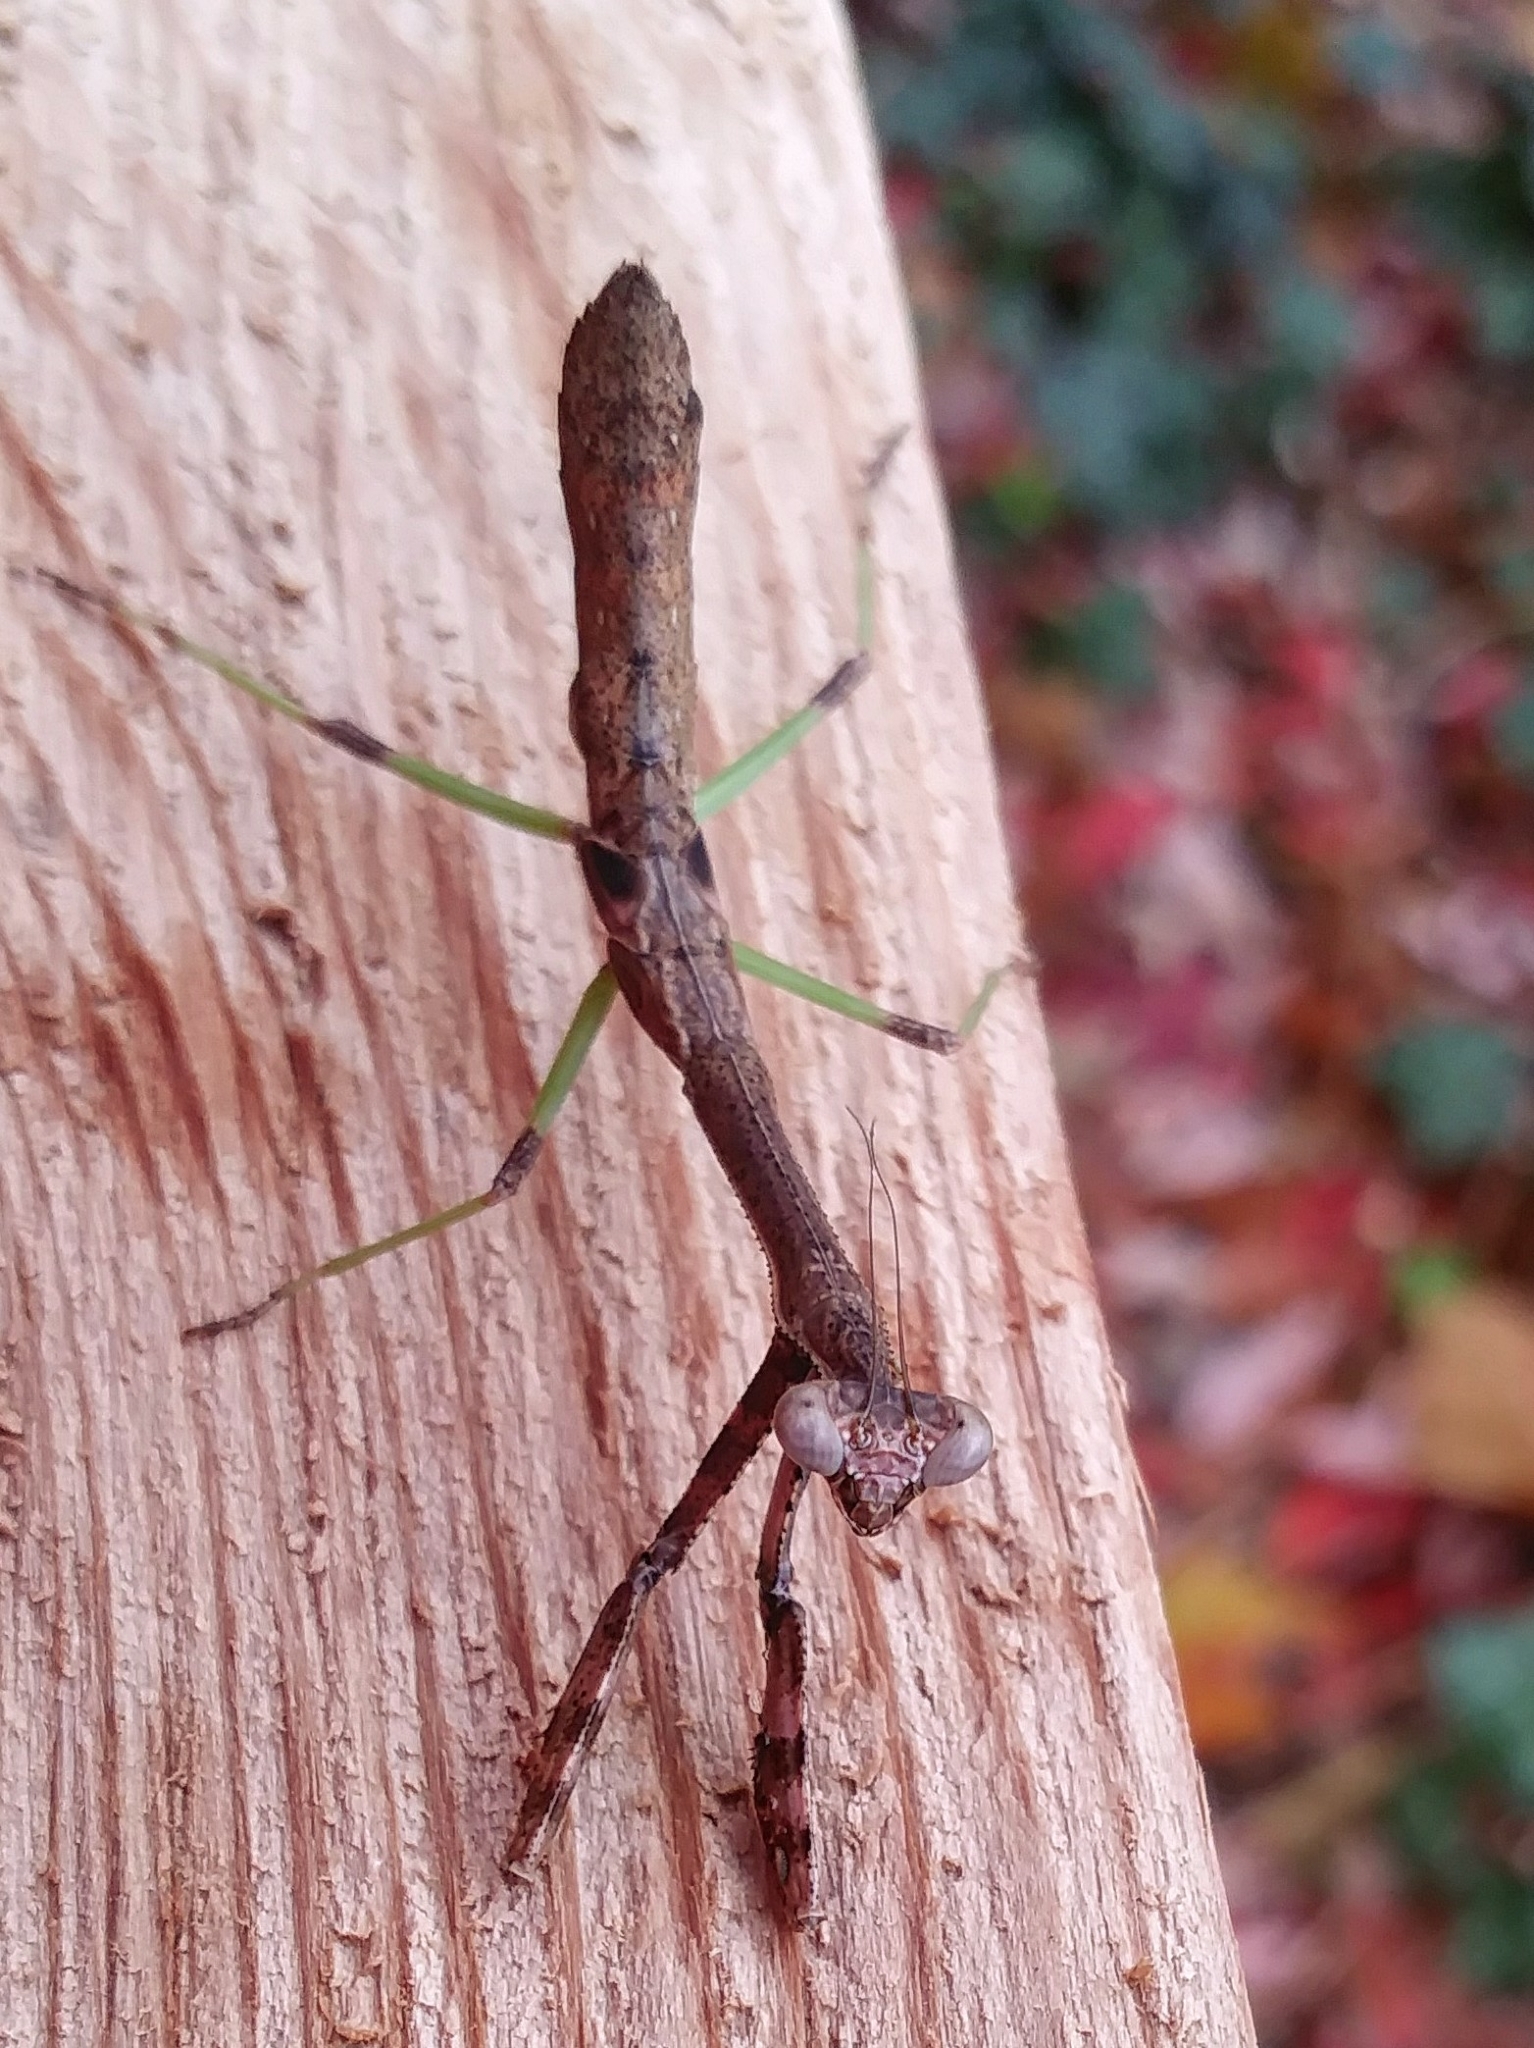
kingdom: Animalia
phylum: Arthropoda
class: Insecta
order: Mantodea
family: Mantidae
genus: Stagmomantis
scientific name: Stagmomantis carolina
